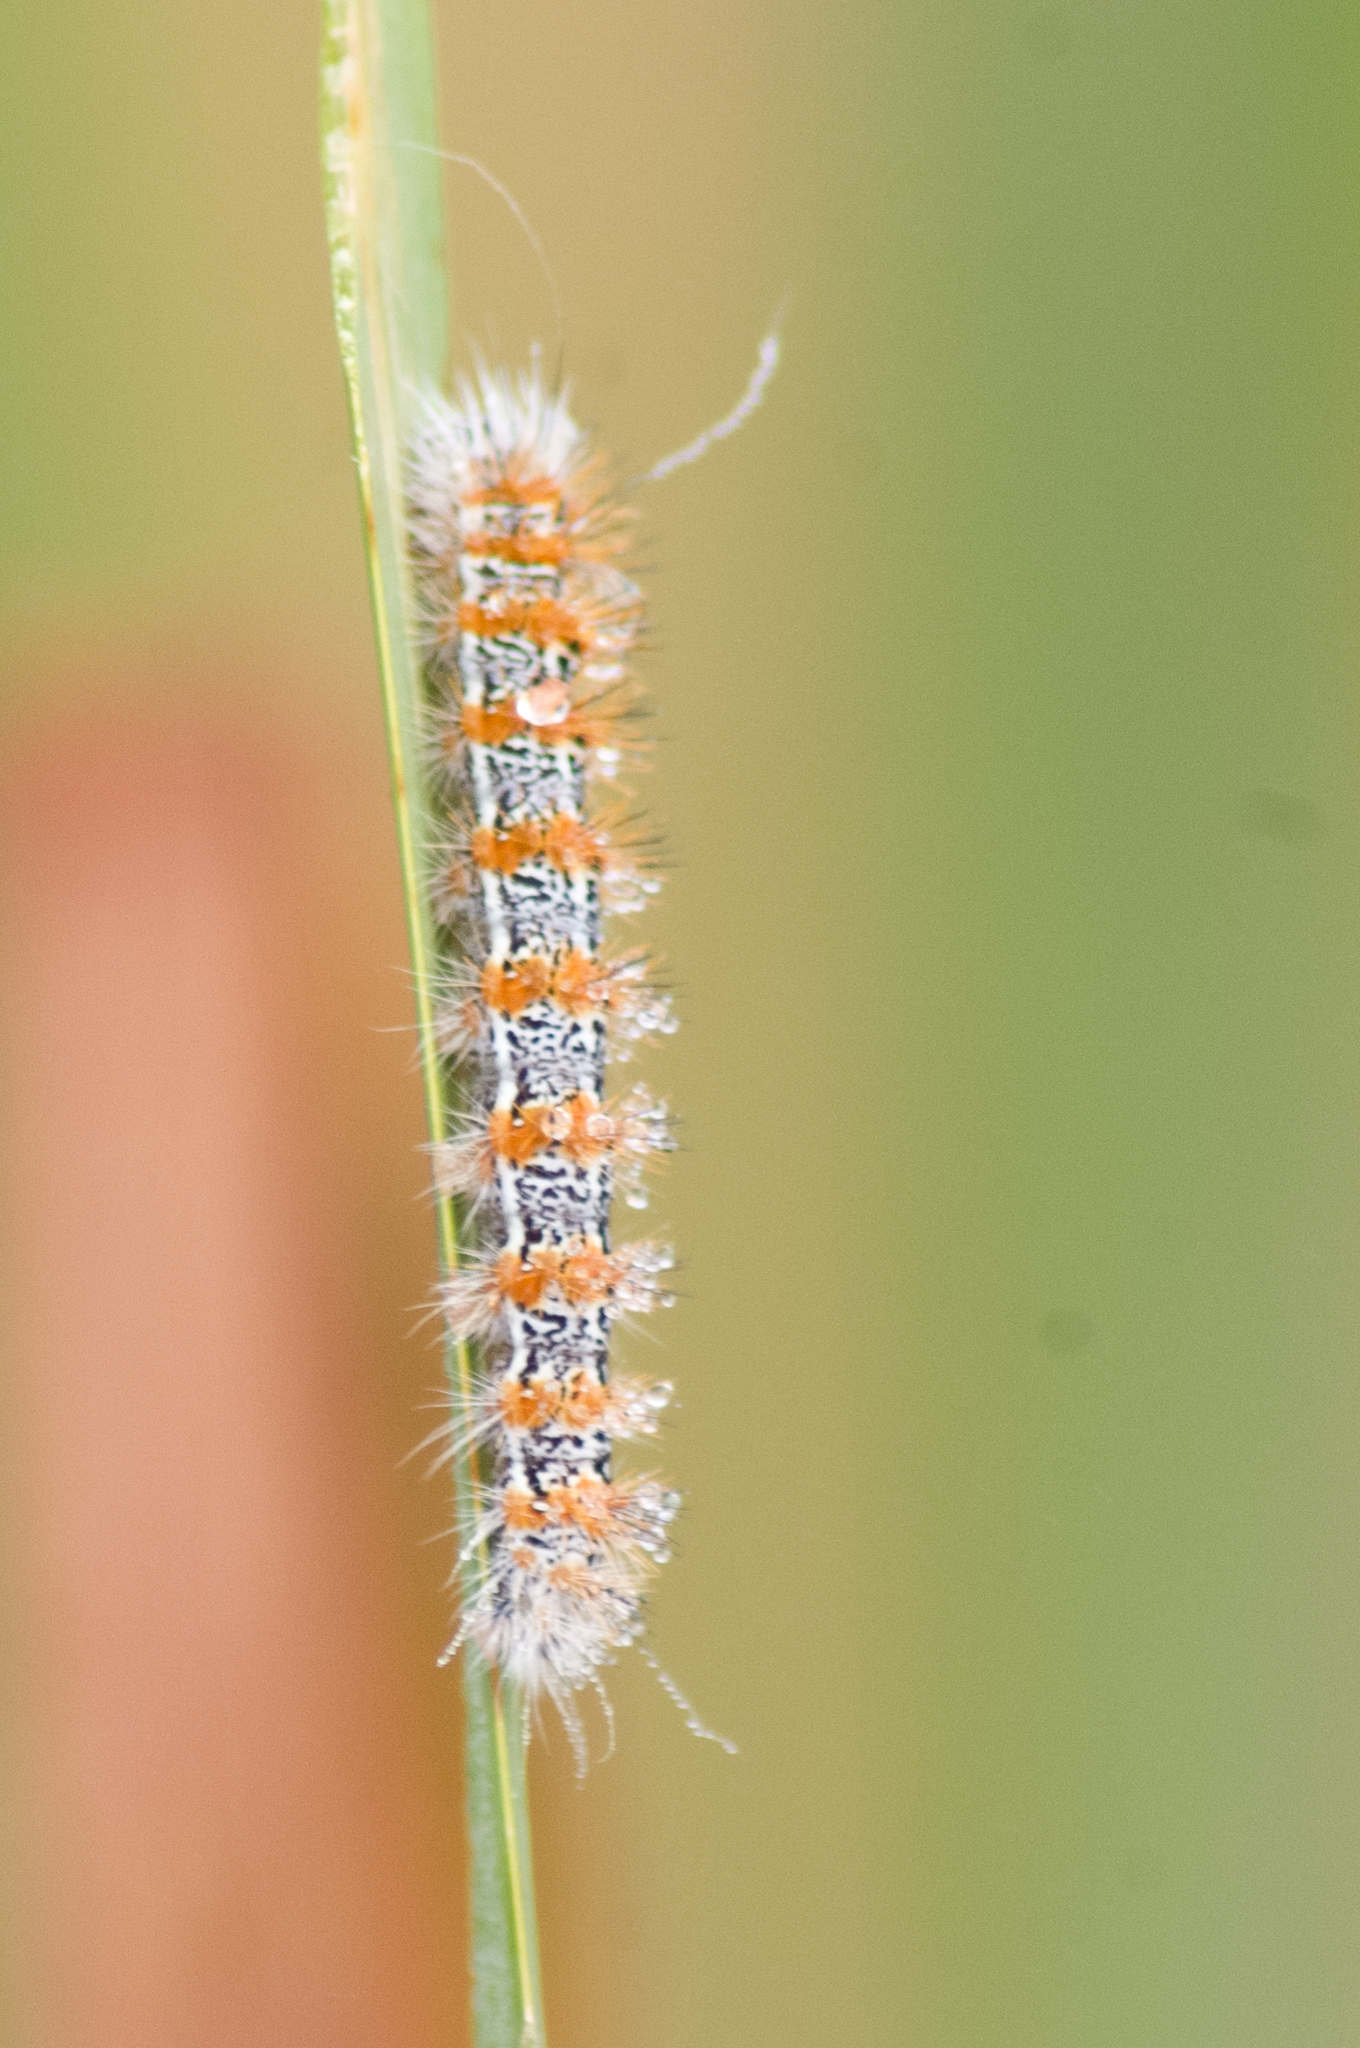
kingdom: Animalia
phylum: Arthropoda
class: Insecta
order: Lepidoptera
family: Noctuidae
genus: Acronicta
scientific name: Acronicta insularis
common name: Henry's marsh moth
